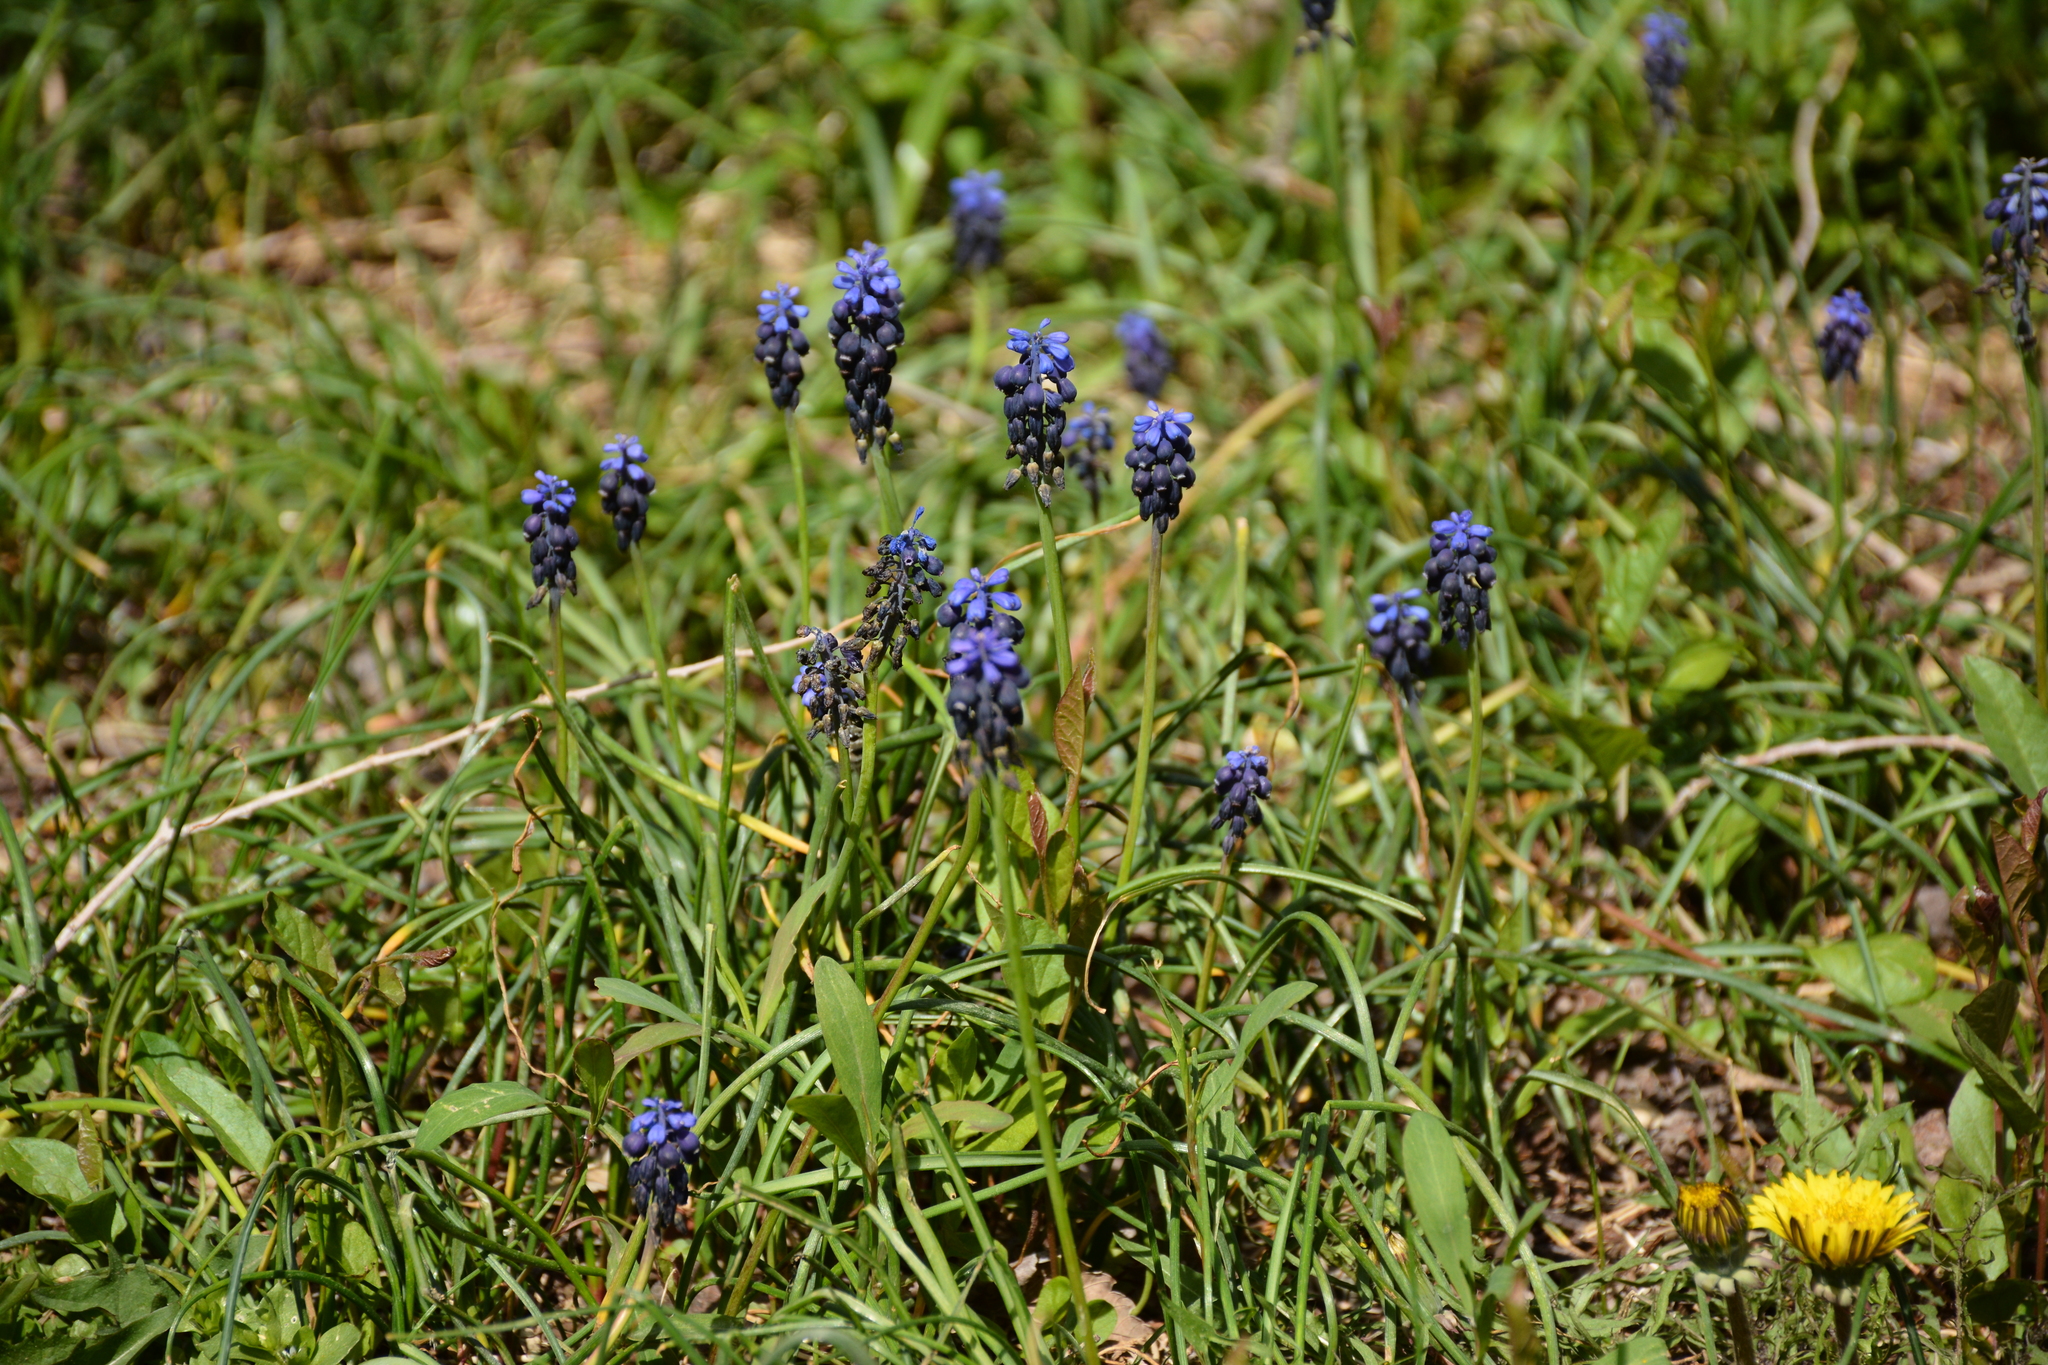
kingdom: Plantae
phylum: Tracheophyta
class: Liliopsida
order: Asparagales
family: Asparagaceae
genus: Muscari
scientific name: Muscari neglectum
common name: Grape-hyacinth
